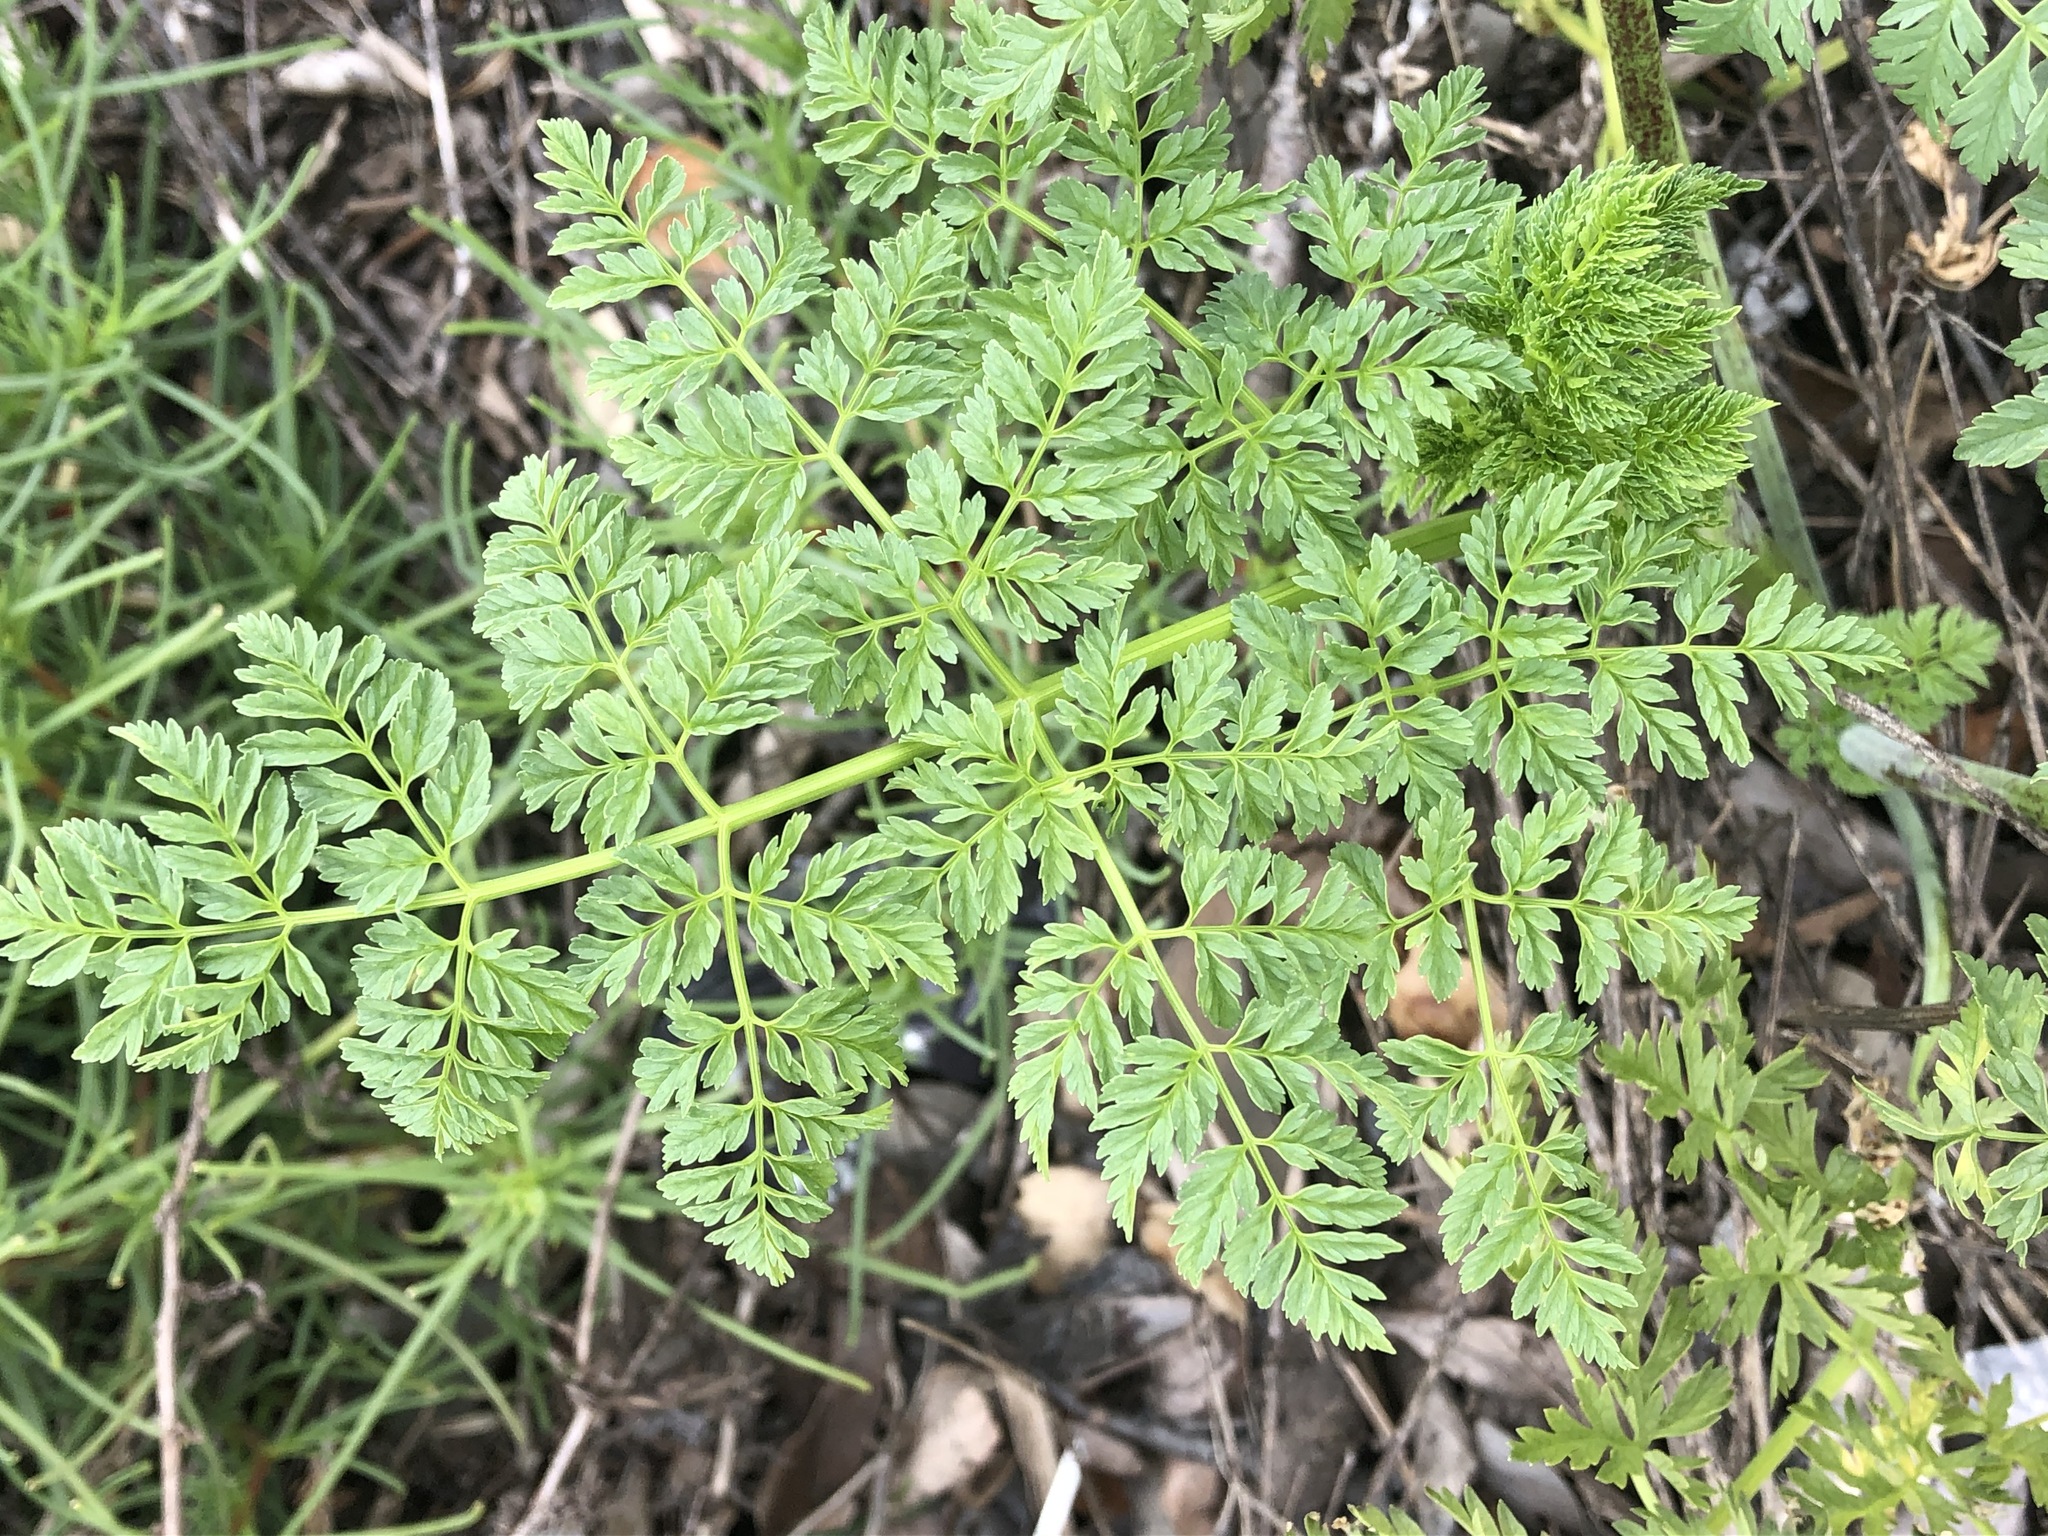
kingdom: Plantae
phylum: Tracheophyta
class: Magnoliopsida
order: Apiales
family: Apiaceae
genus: Conium
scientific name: Conium maculatum
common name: Hemlock
